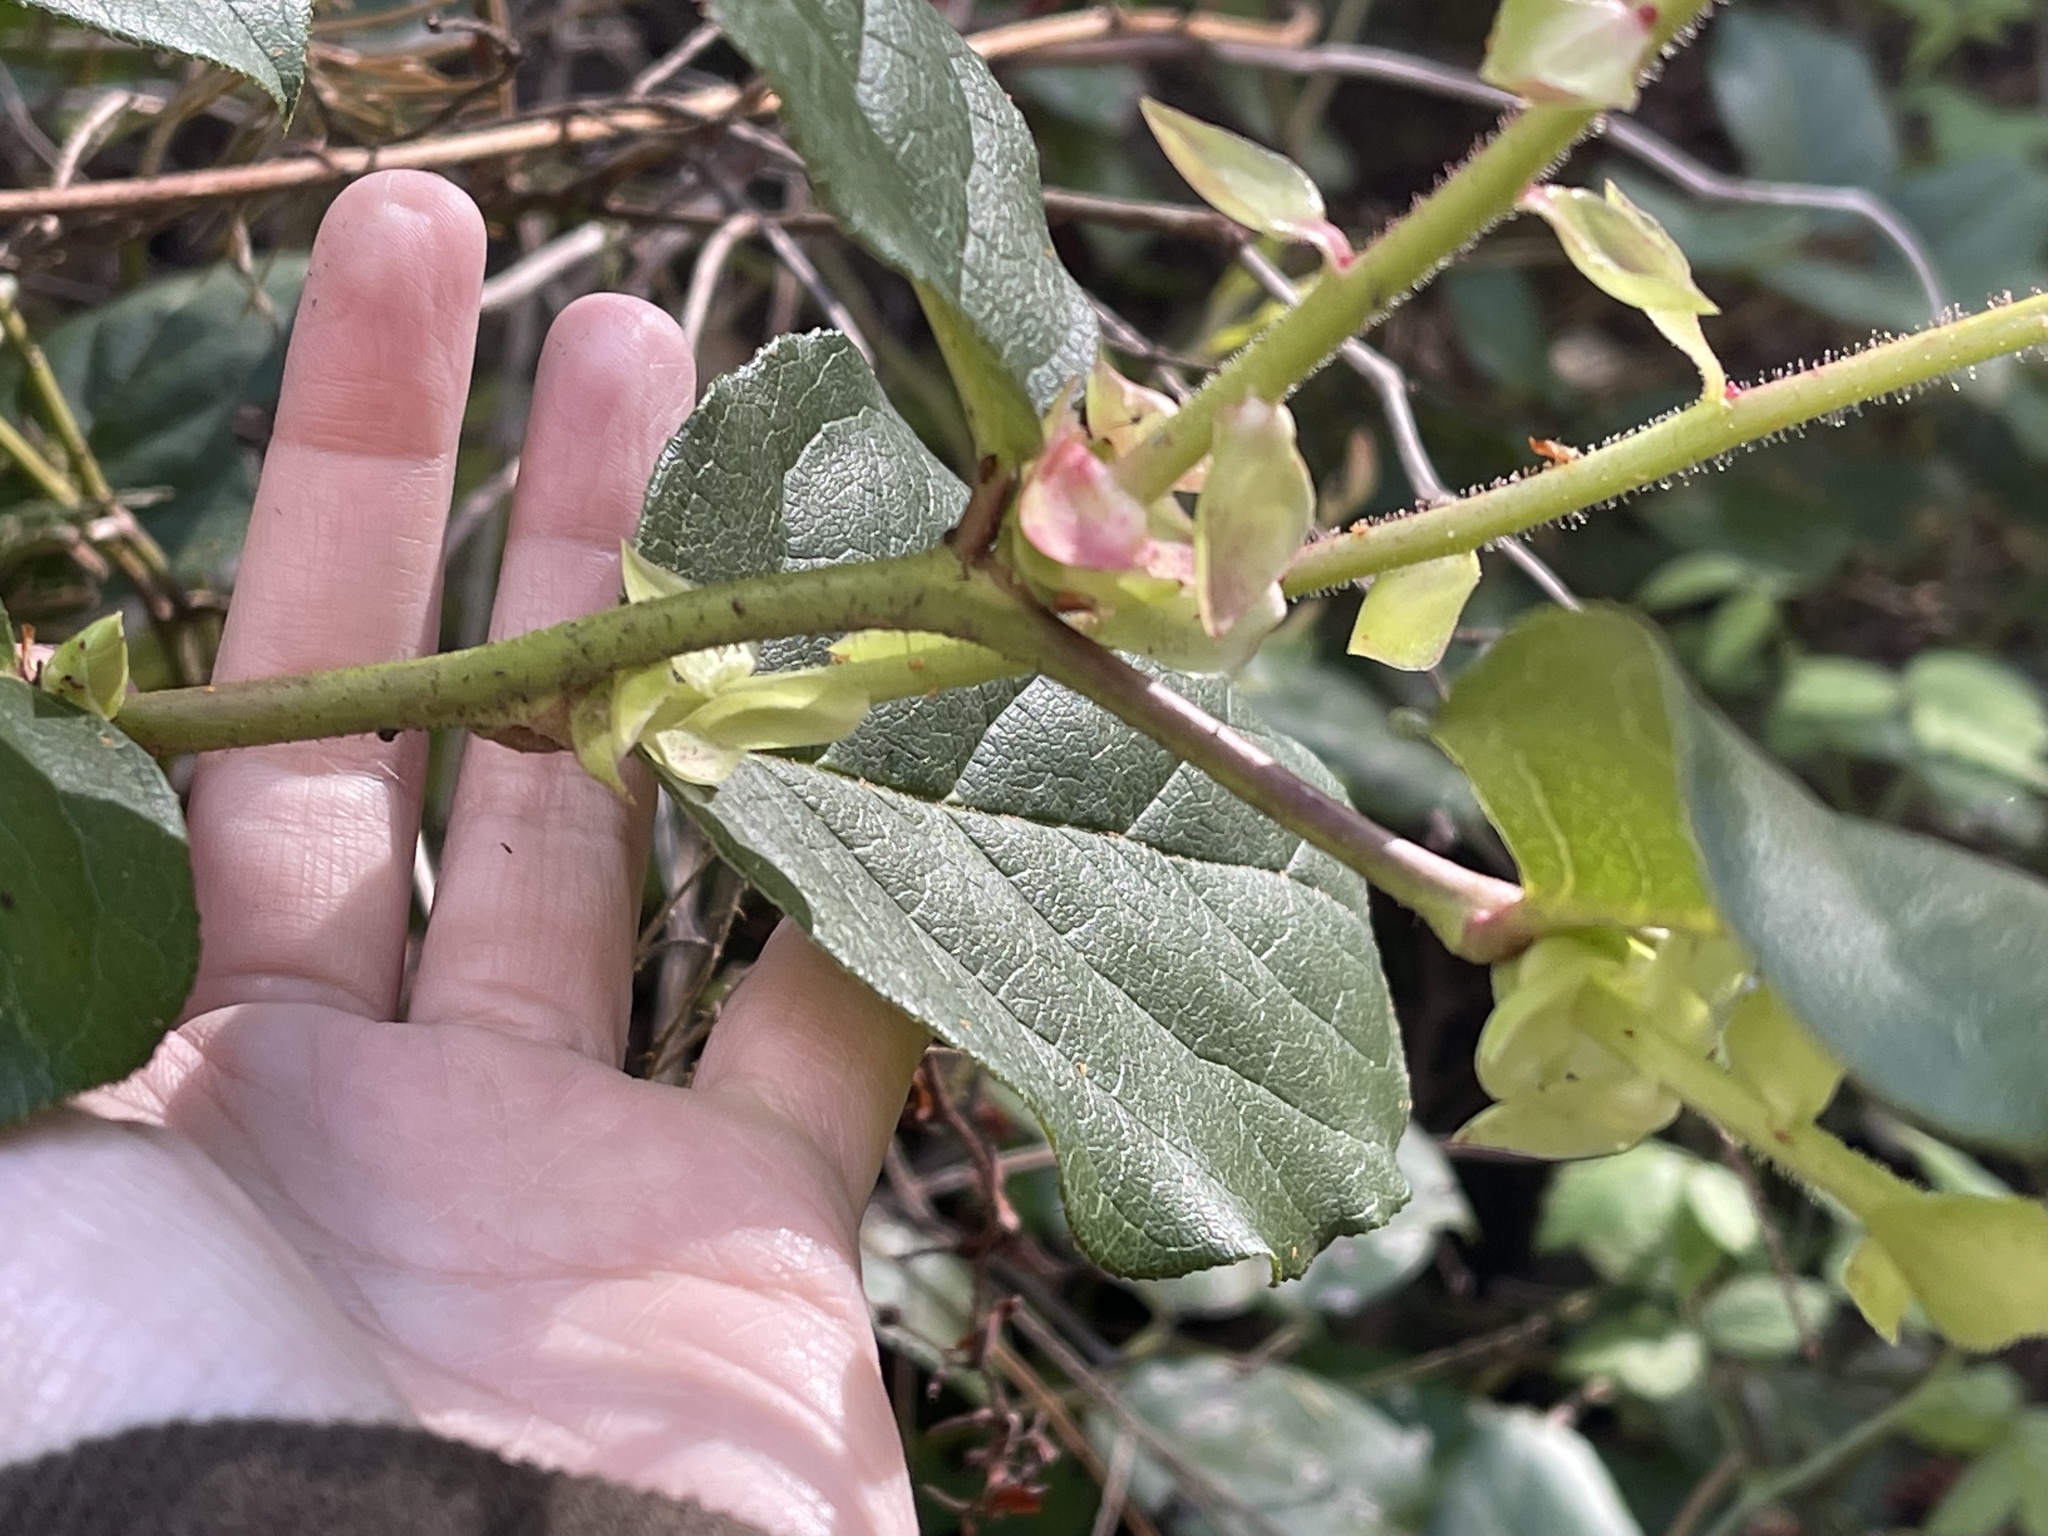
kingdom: Plantae
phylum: Tracheophyta
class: Magnoliopsida
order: Ericales
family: Ericaceae
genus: Gaultheria
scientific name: Gaultheria shallon
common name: Shallon
